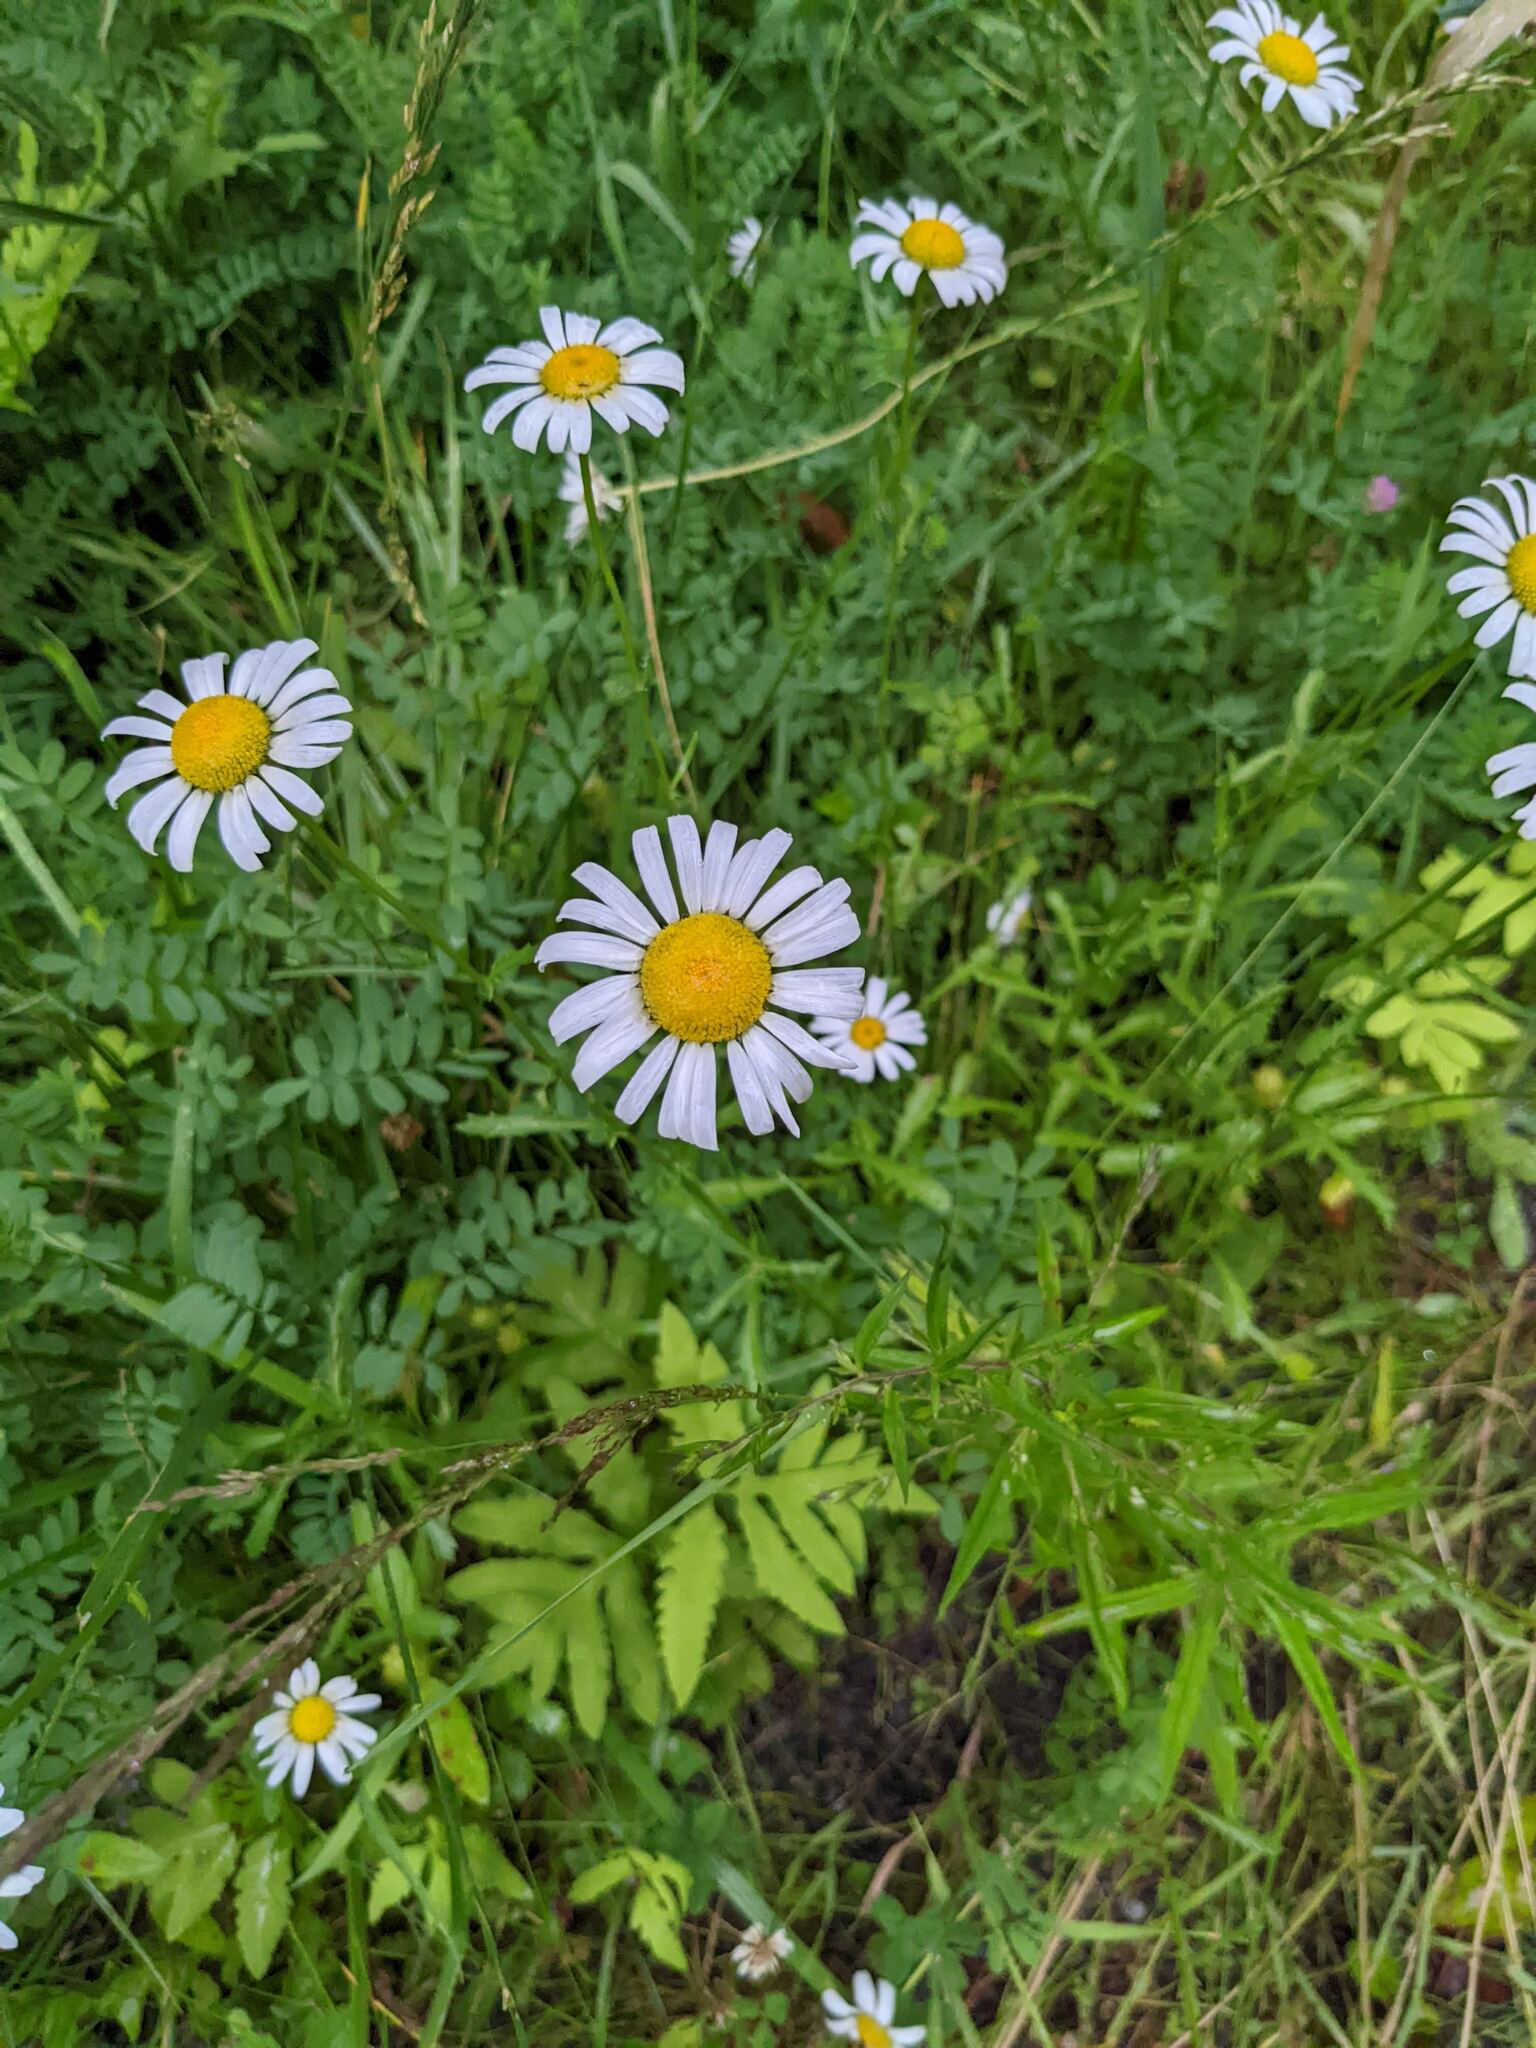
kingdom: Plantae
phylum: Tracheophyta
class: Magnoliopsida
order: Asterales
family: Asteraceae
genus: Leucanthemum
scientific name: Leucanthemum vulgare
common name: Oxeye daisy
